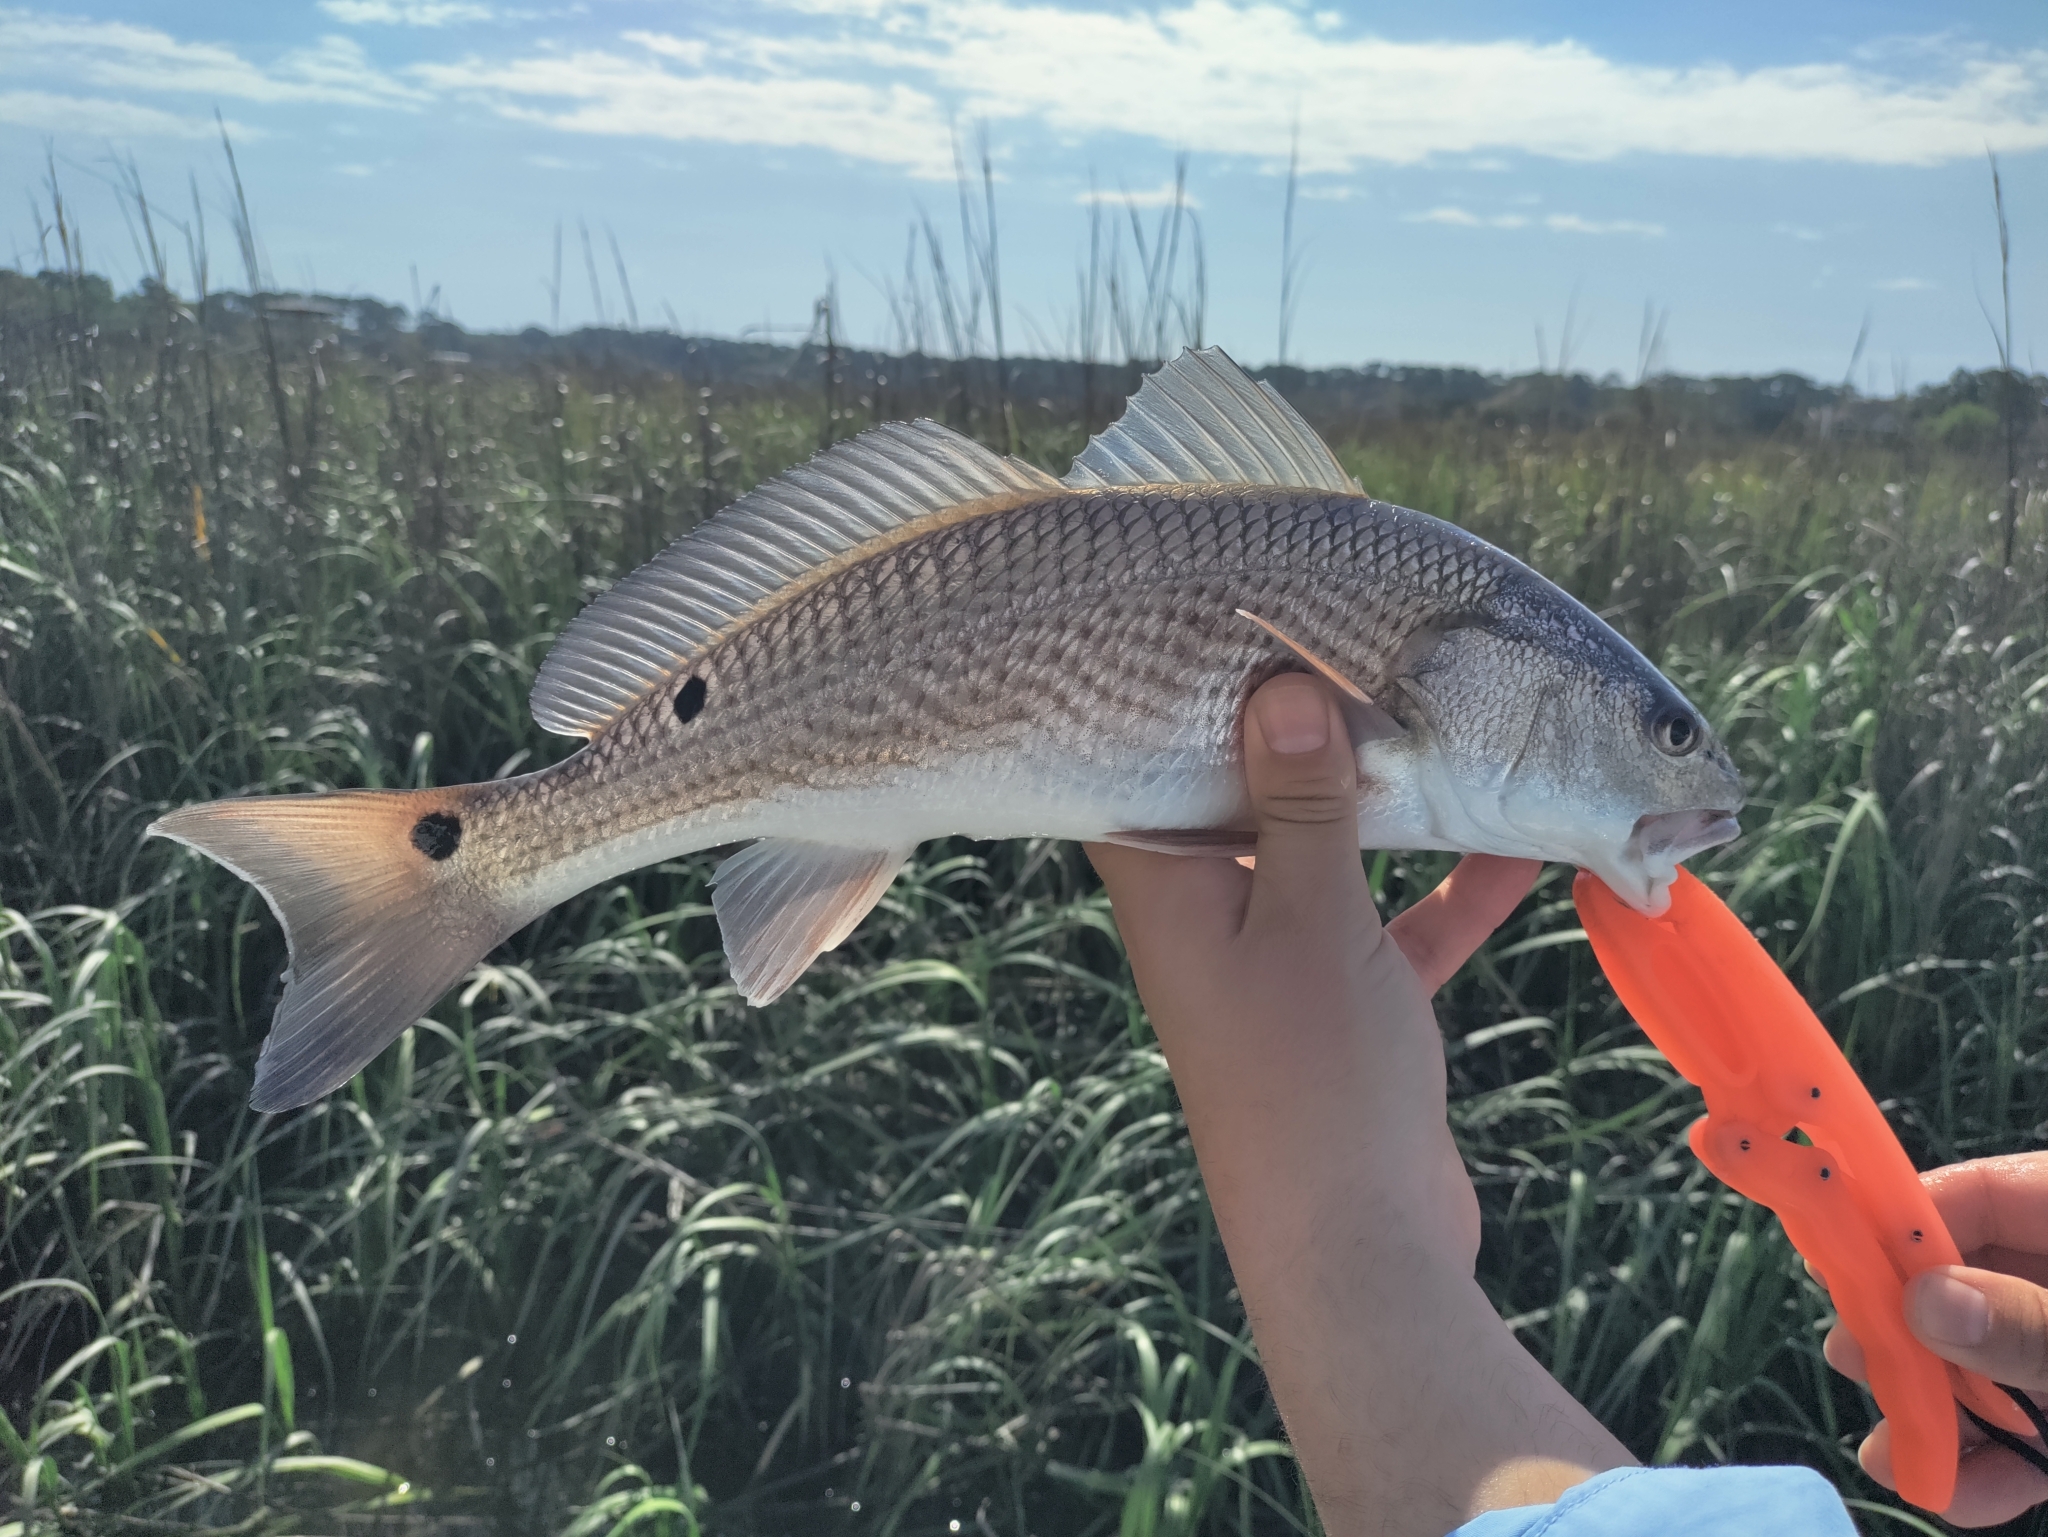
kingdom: Animalia
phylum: Chordata
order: Perciformes
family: Sciaenidae
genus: Sciaenops
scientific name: Sciaenops ocellatus
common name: Red drum
